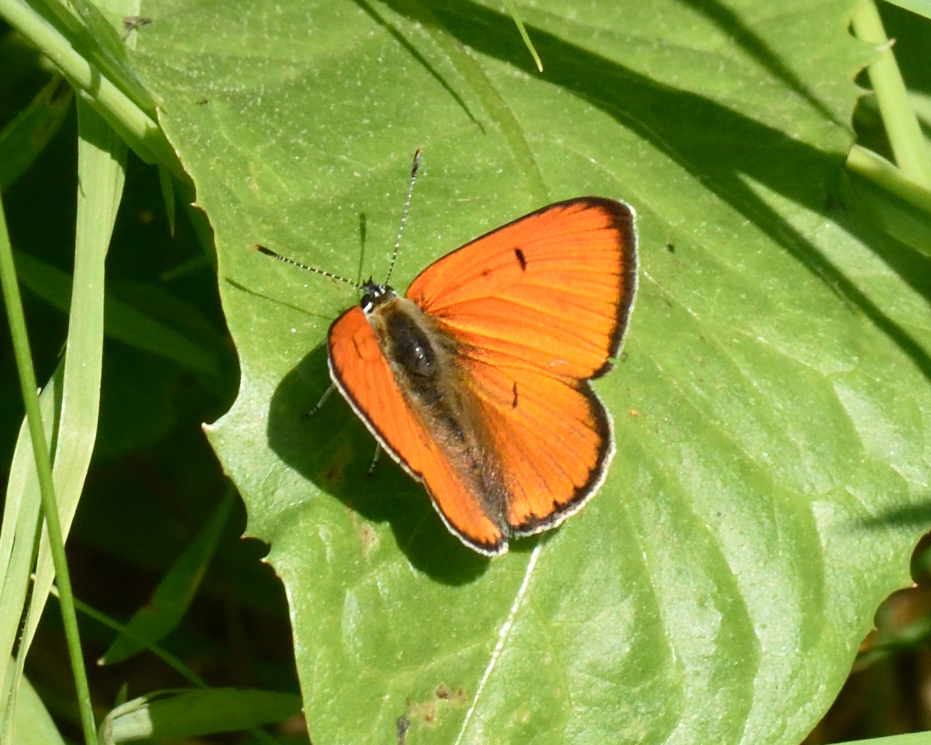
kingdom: Animalia
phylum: Arthropoda
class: Insecta
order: Lepidoptera
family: Lycaenidae
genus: Lycaena
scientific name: Lycaena dispar
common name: Large copper
